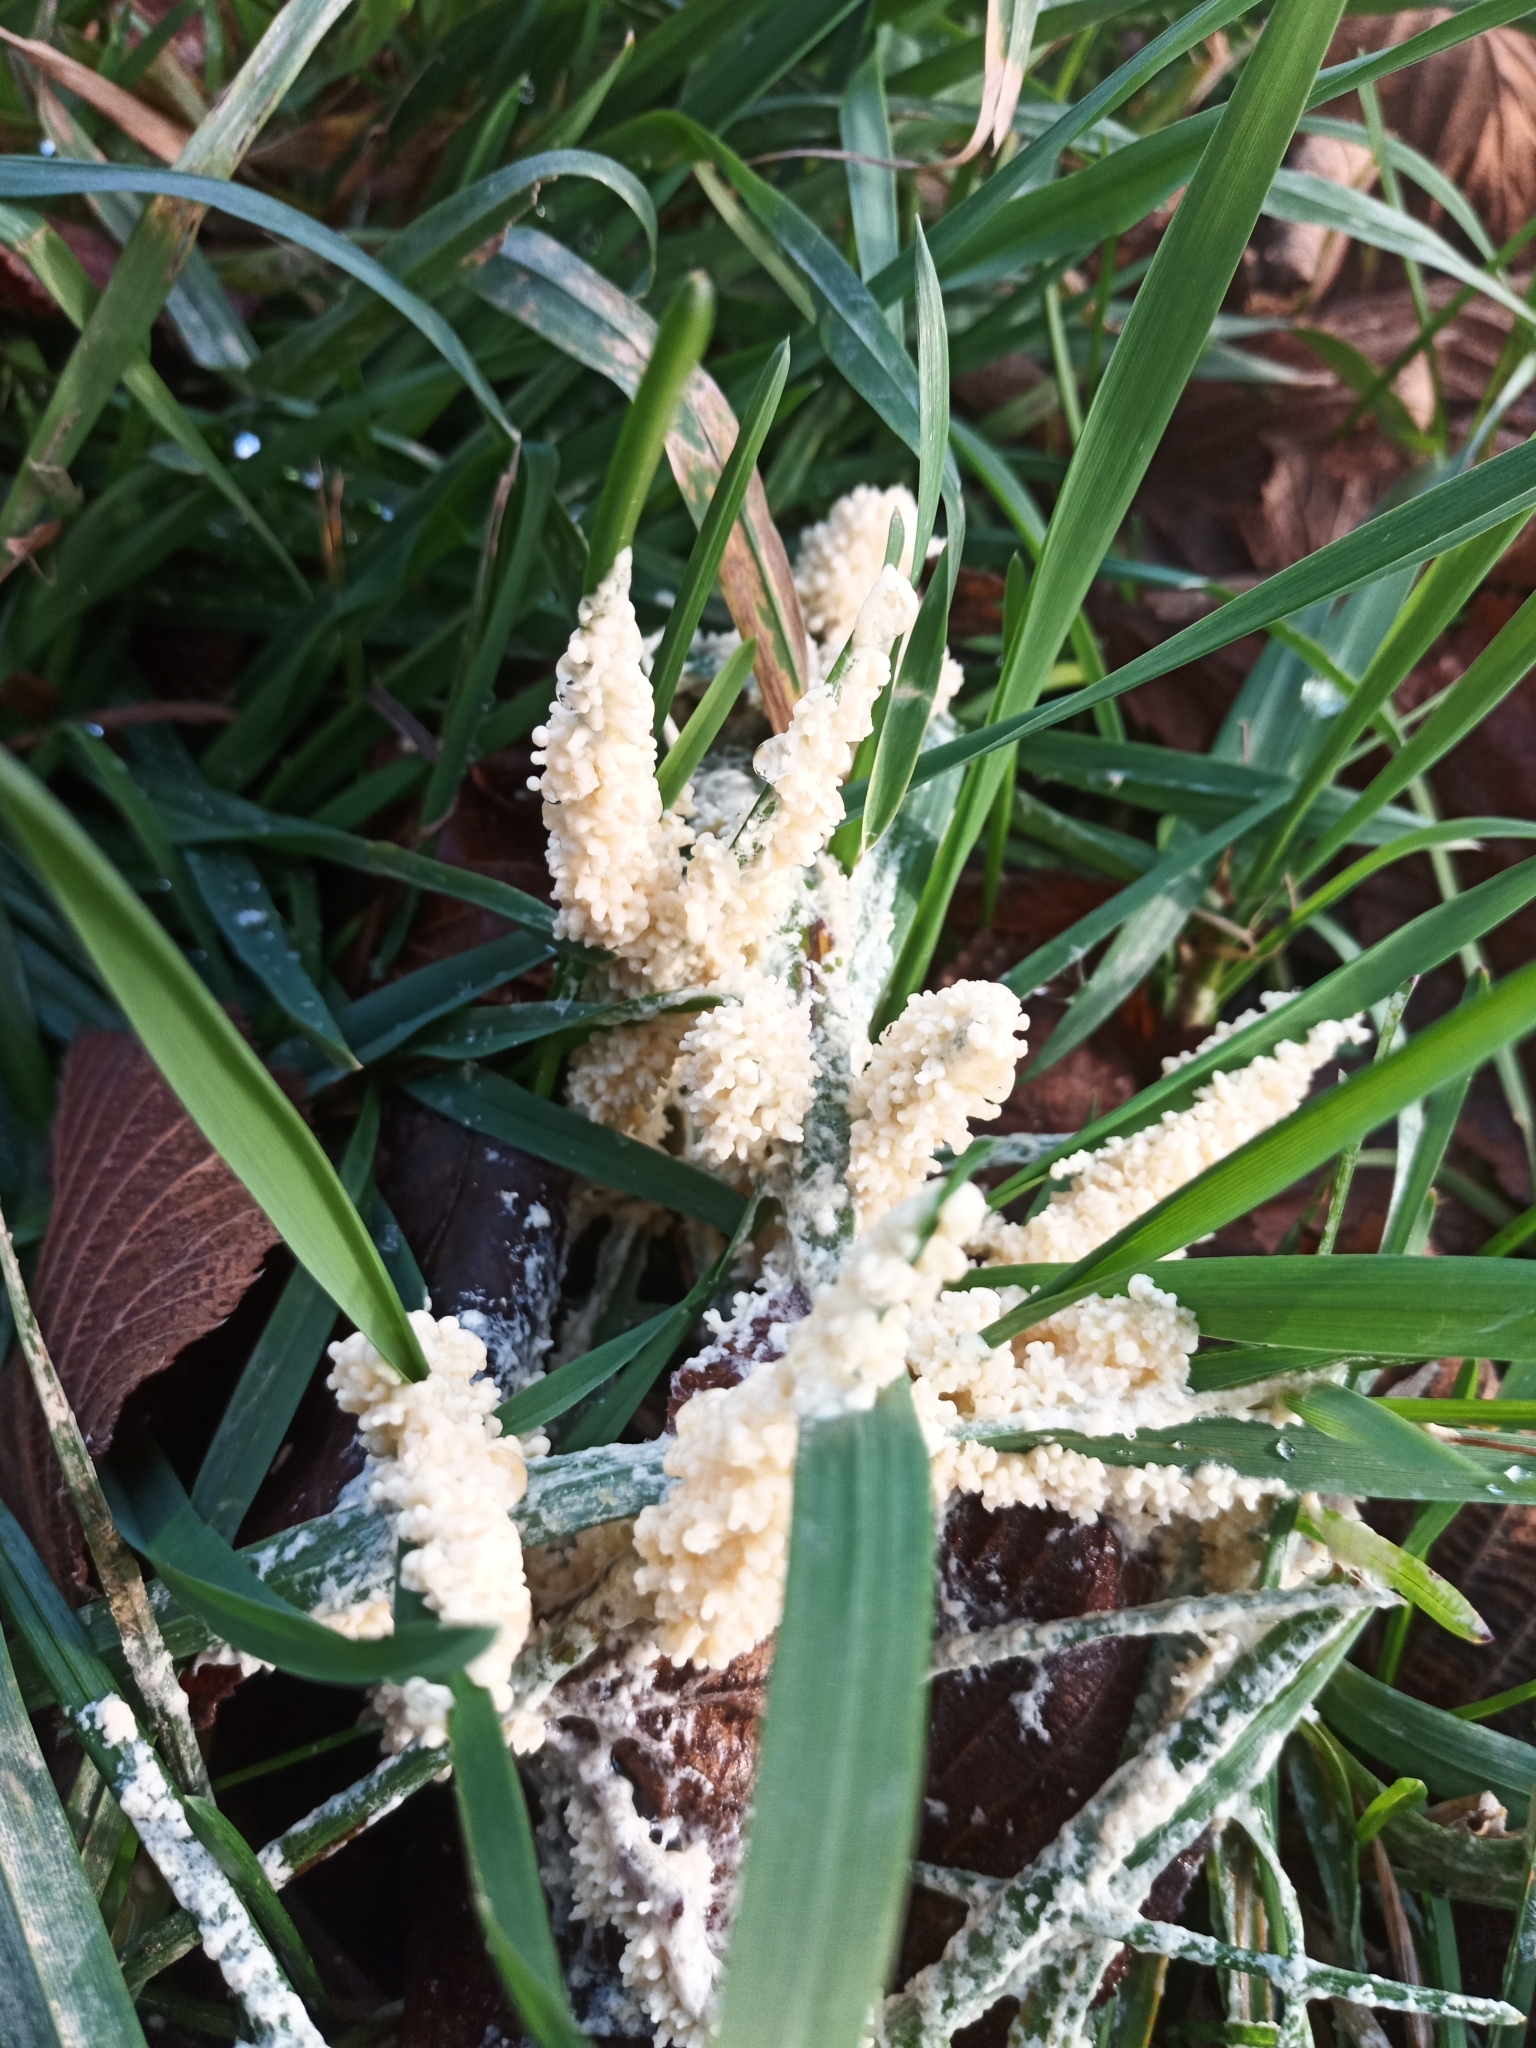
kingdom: Protozoa
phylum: Mycetozoa
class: Myxomycetes
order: Physarales
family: Physaraceae
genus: Didymium
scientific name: Didymium
